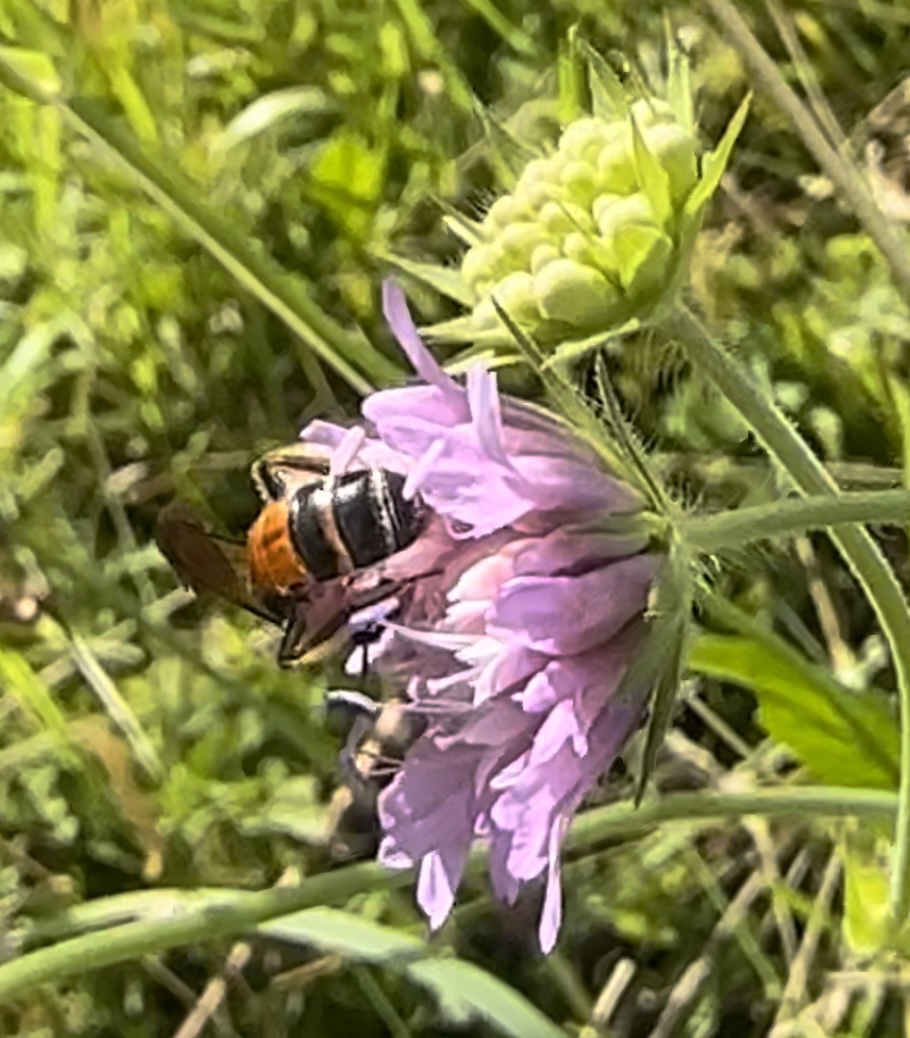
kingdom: Animalia
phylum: Arthropoda
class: Insecta
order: Hymenoptera
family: Andrenidae
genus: Andrena
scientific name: Andrena hattorfiana
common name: Large scabious mining bee
